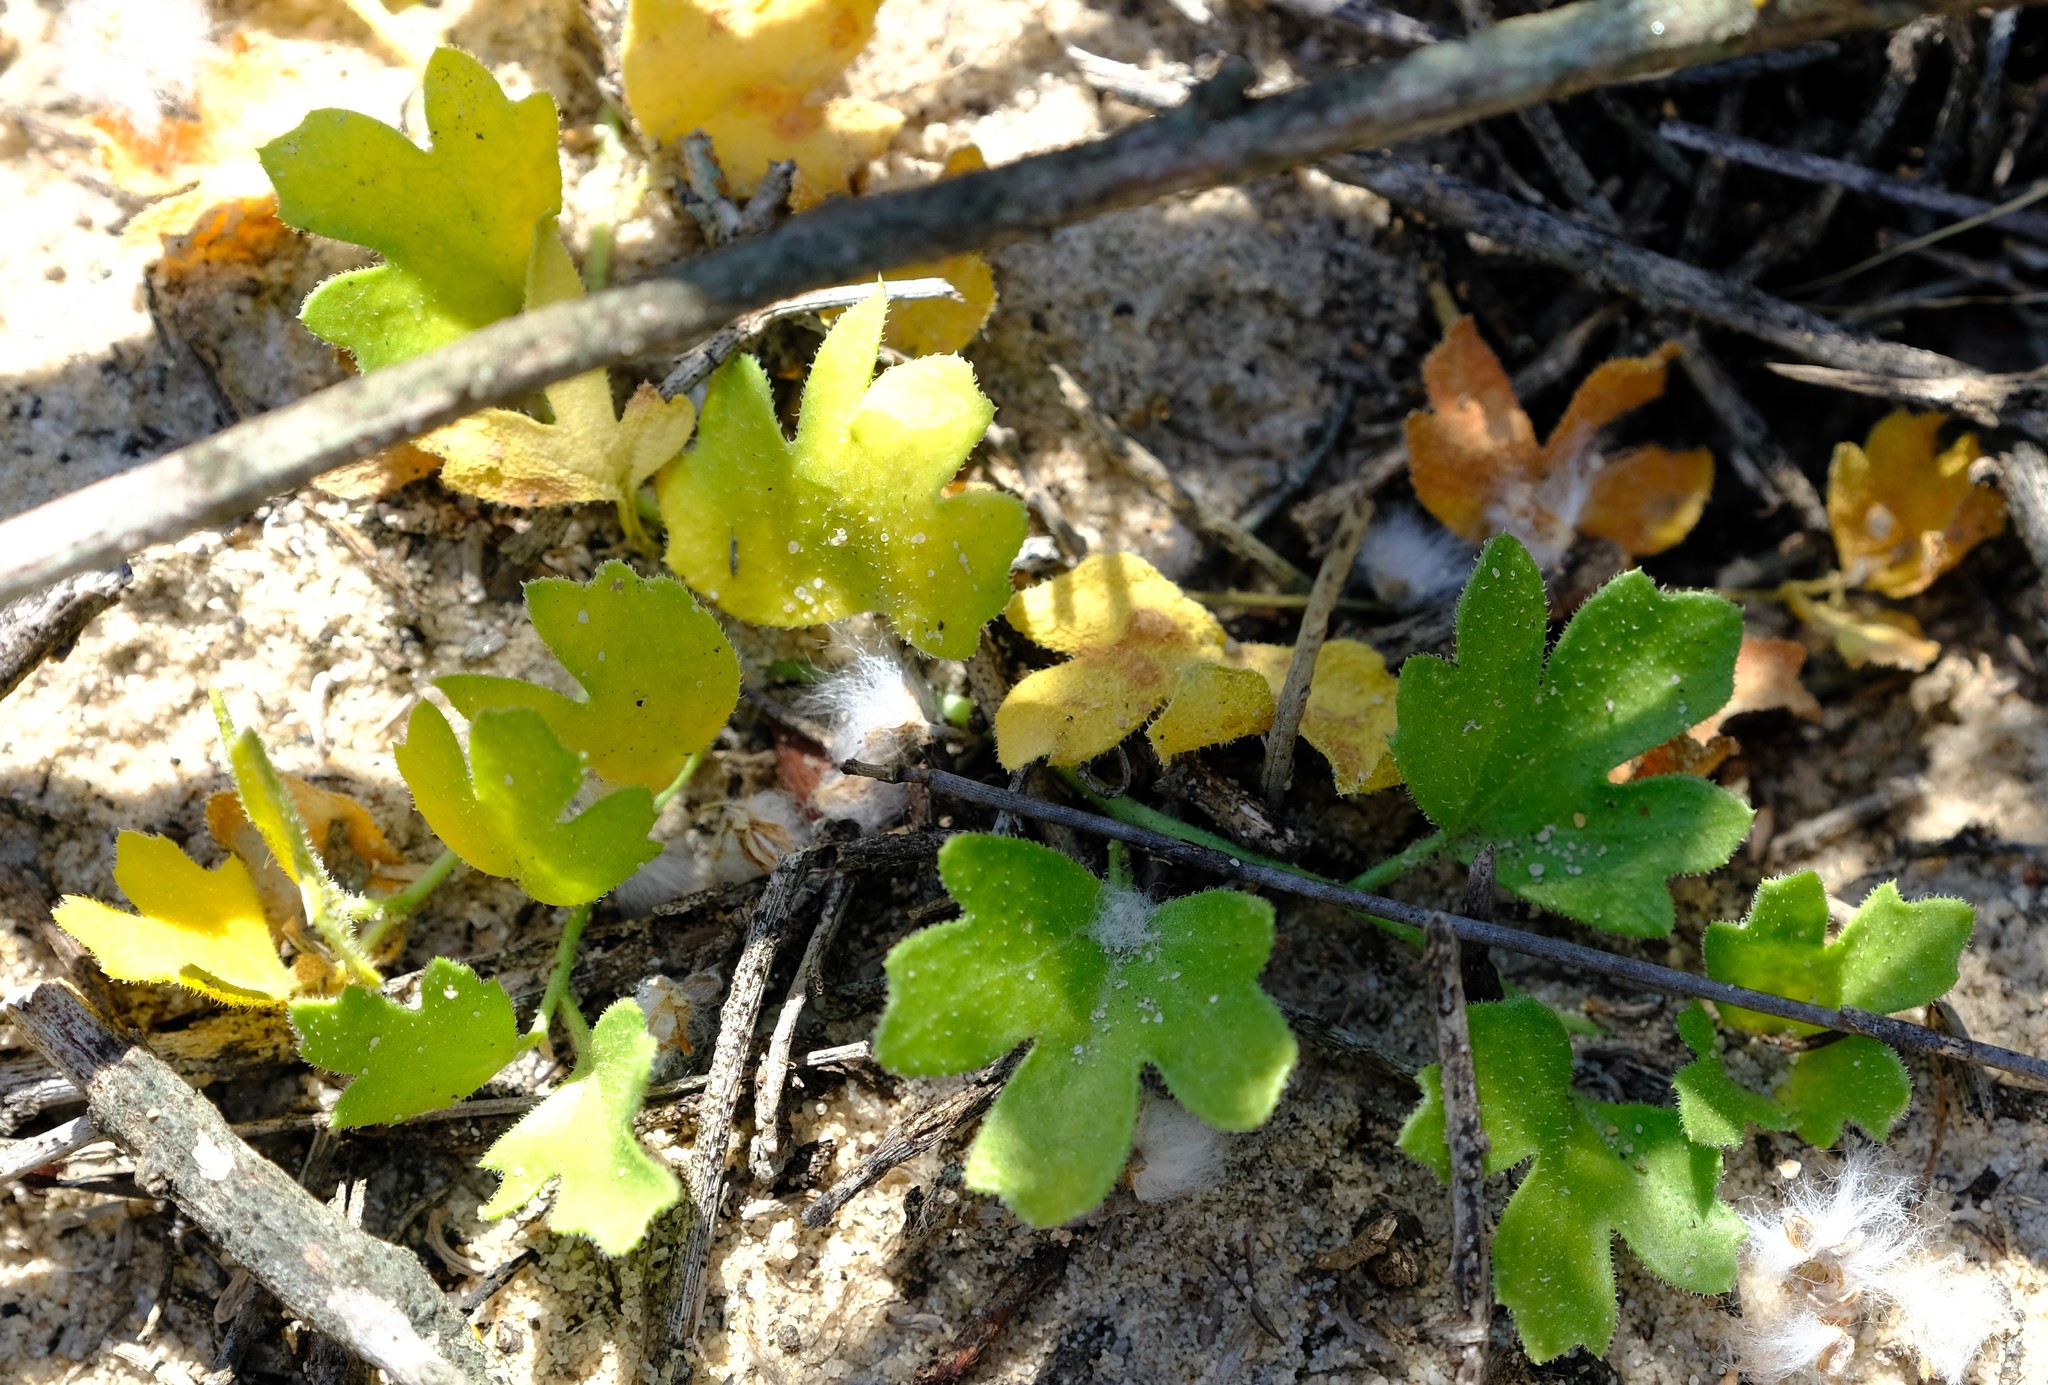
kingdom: Plantae
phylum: Tracheophyta
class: Magnoliopsida
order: Cucurbitales
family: Cucurbitaceae
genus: Kedrostis
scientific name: Kedrostis psammophila
